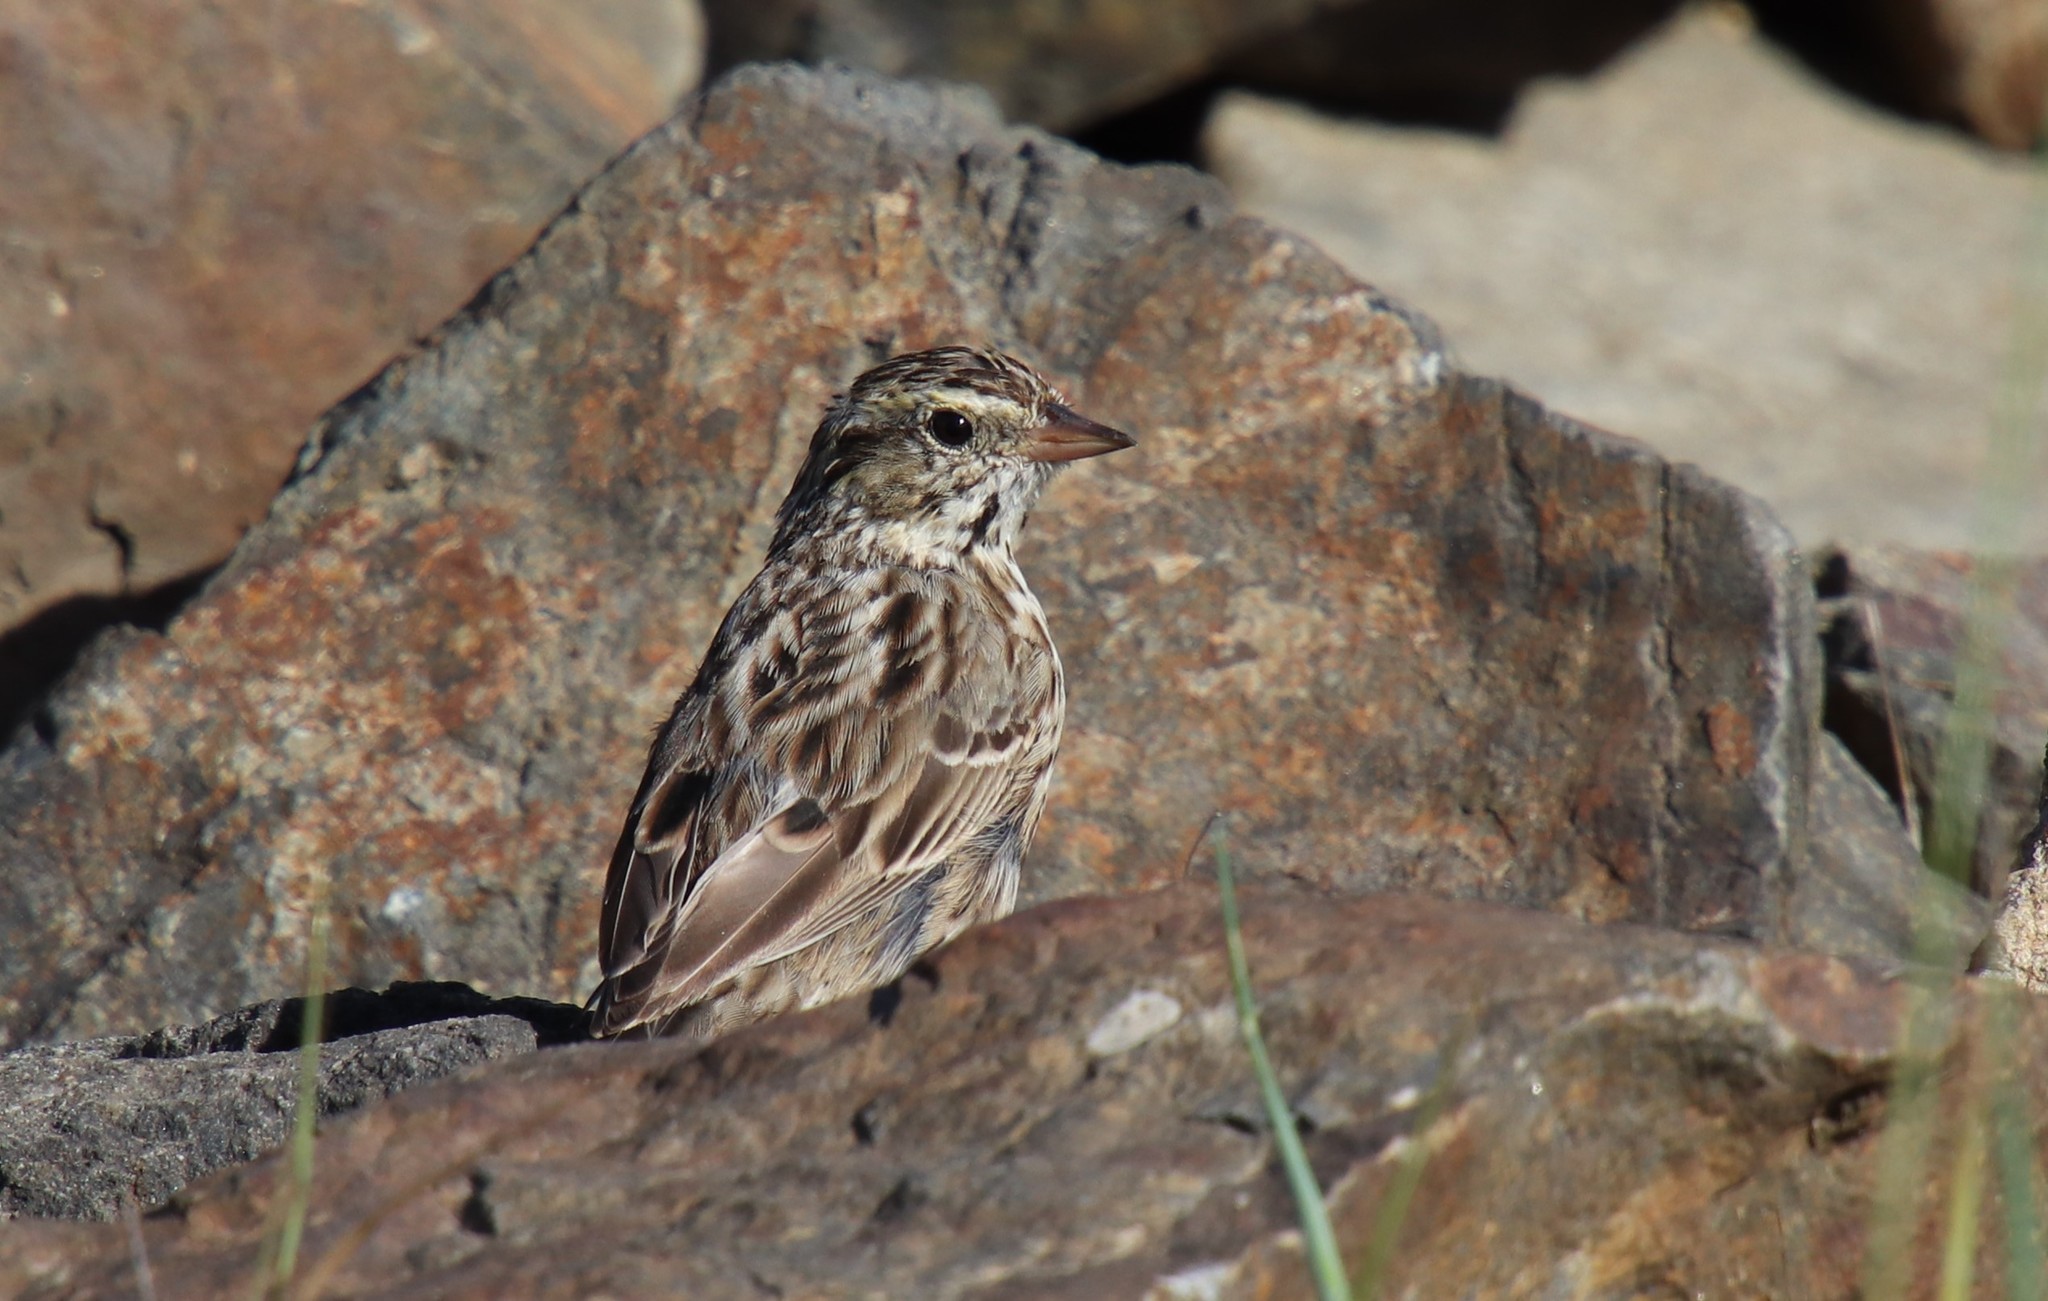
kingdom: Animalia
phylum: Chordata
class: Aves
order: Passeriformes
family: Passerellidae
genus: Passerculus
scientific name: Passerculus sandwichensis
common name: Savannah sparrow
